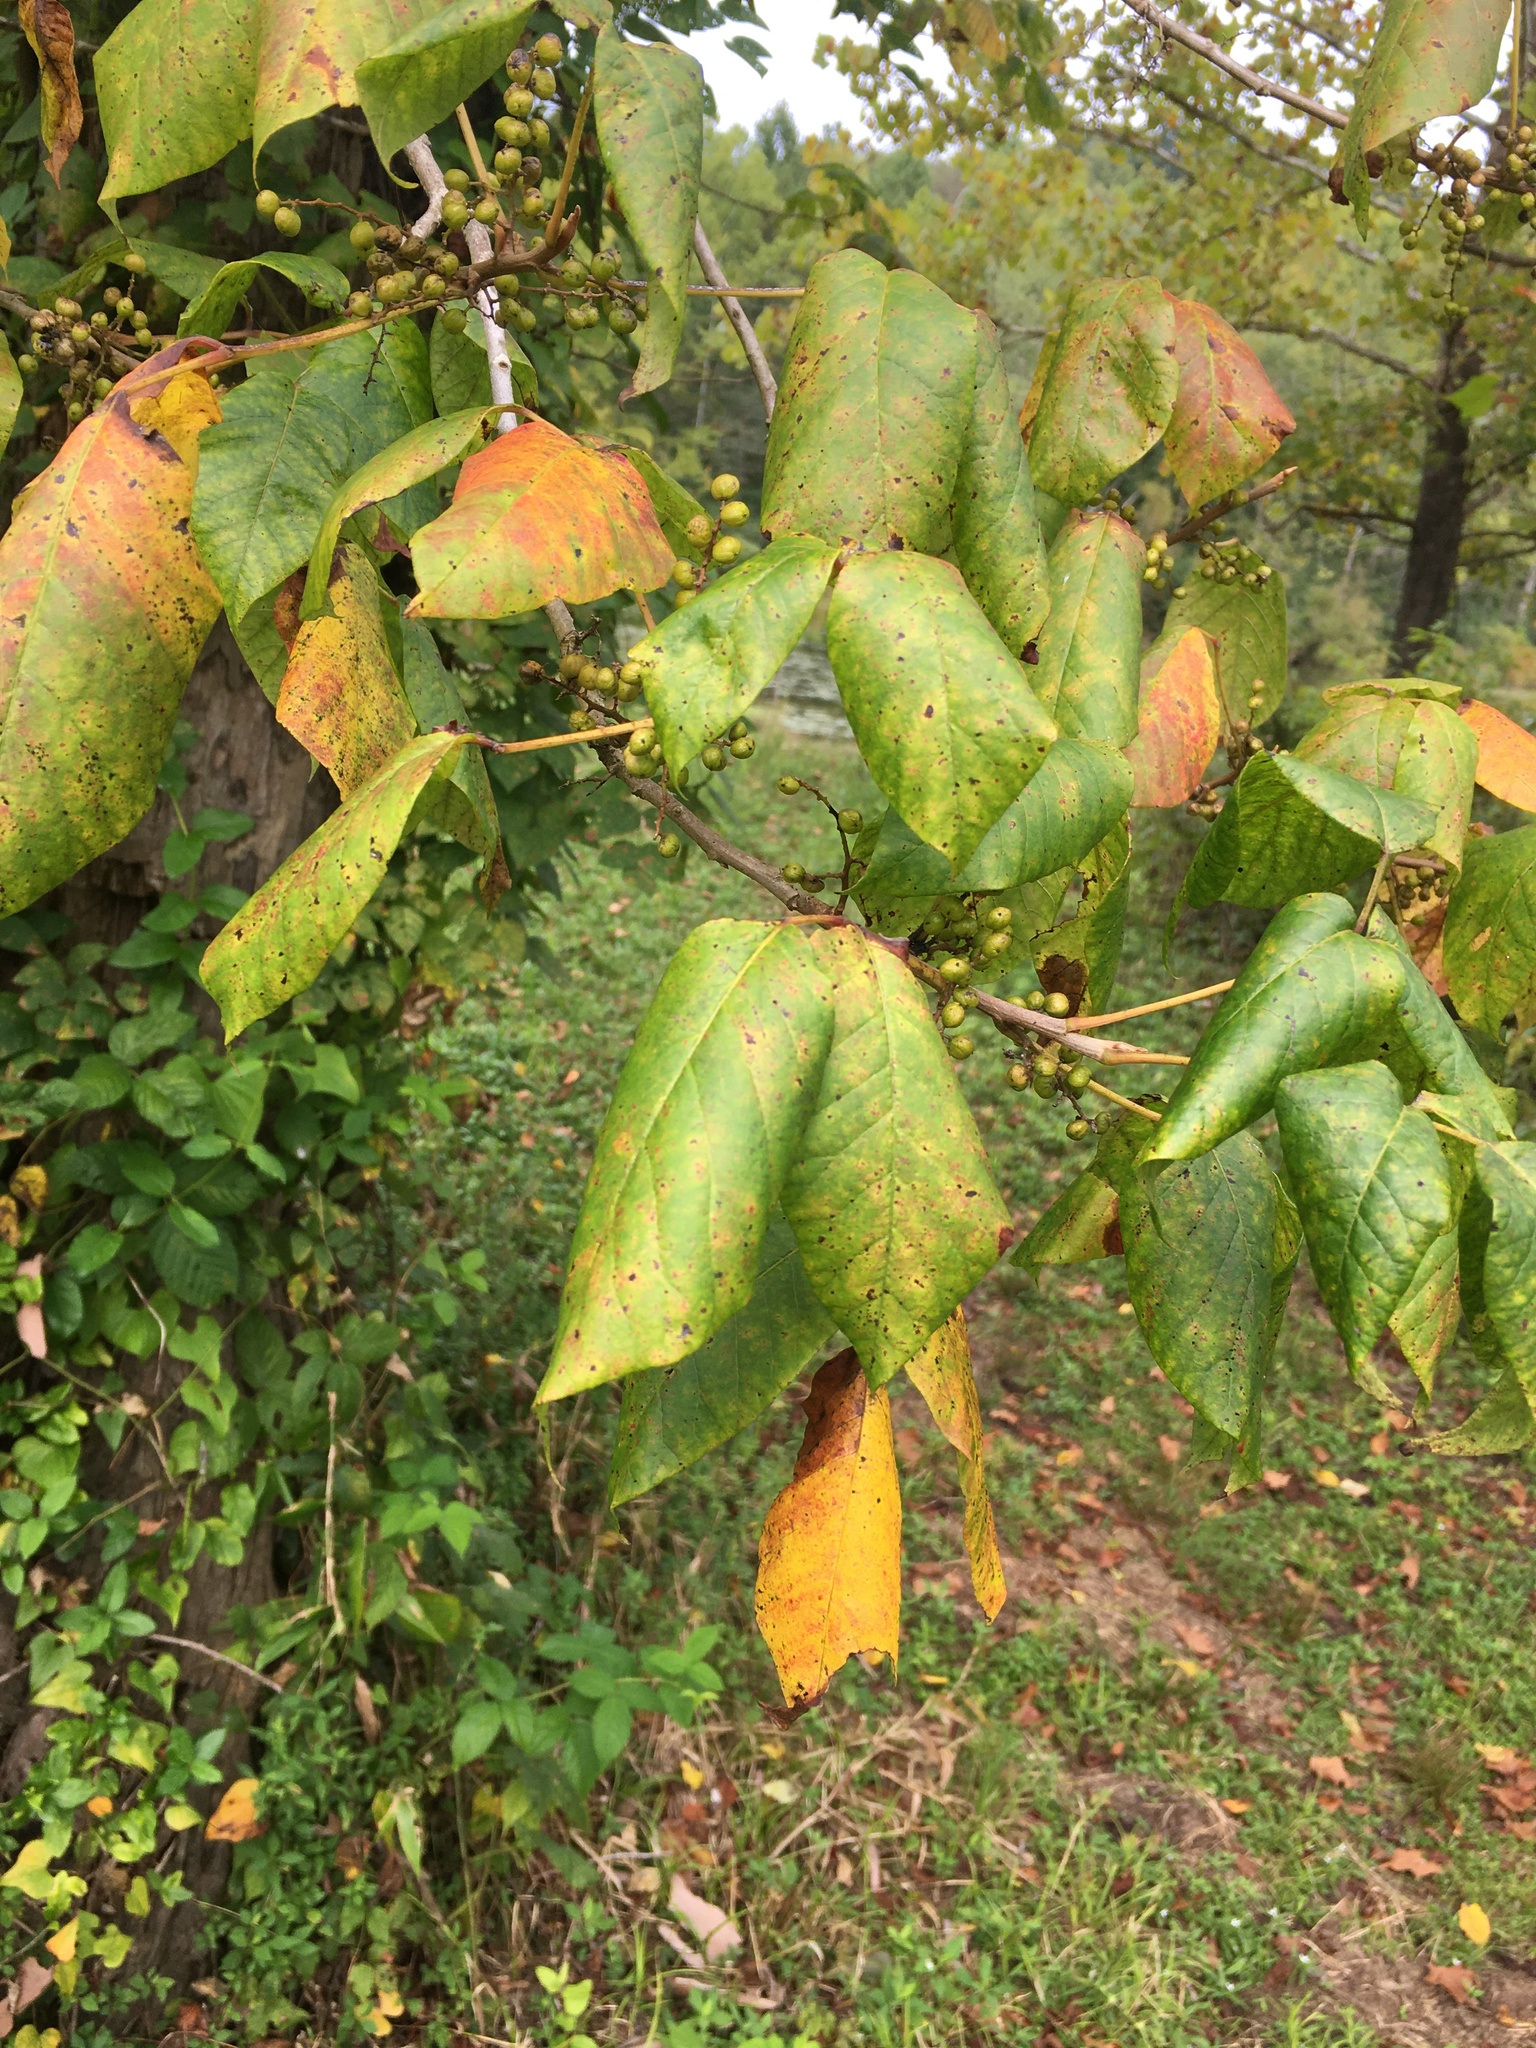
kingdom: Plantae
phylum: Tracheophyta
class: Magnoliopsida
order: Sapindales
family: Anacardiaceae
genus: Toxicodendron
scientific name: Toxicodendron radicans
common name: Poison ivy
